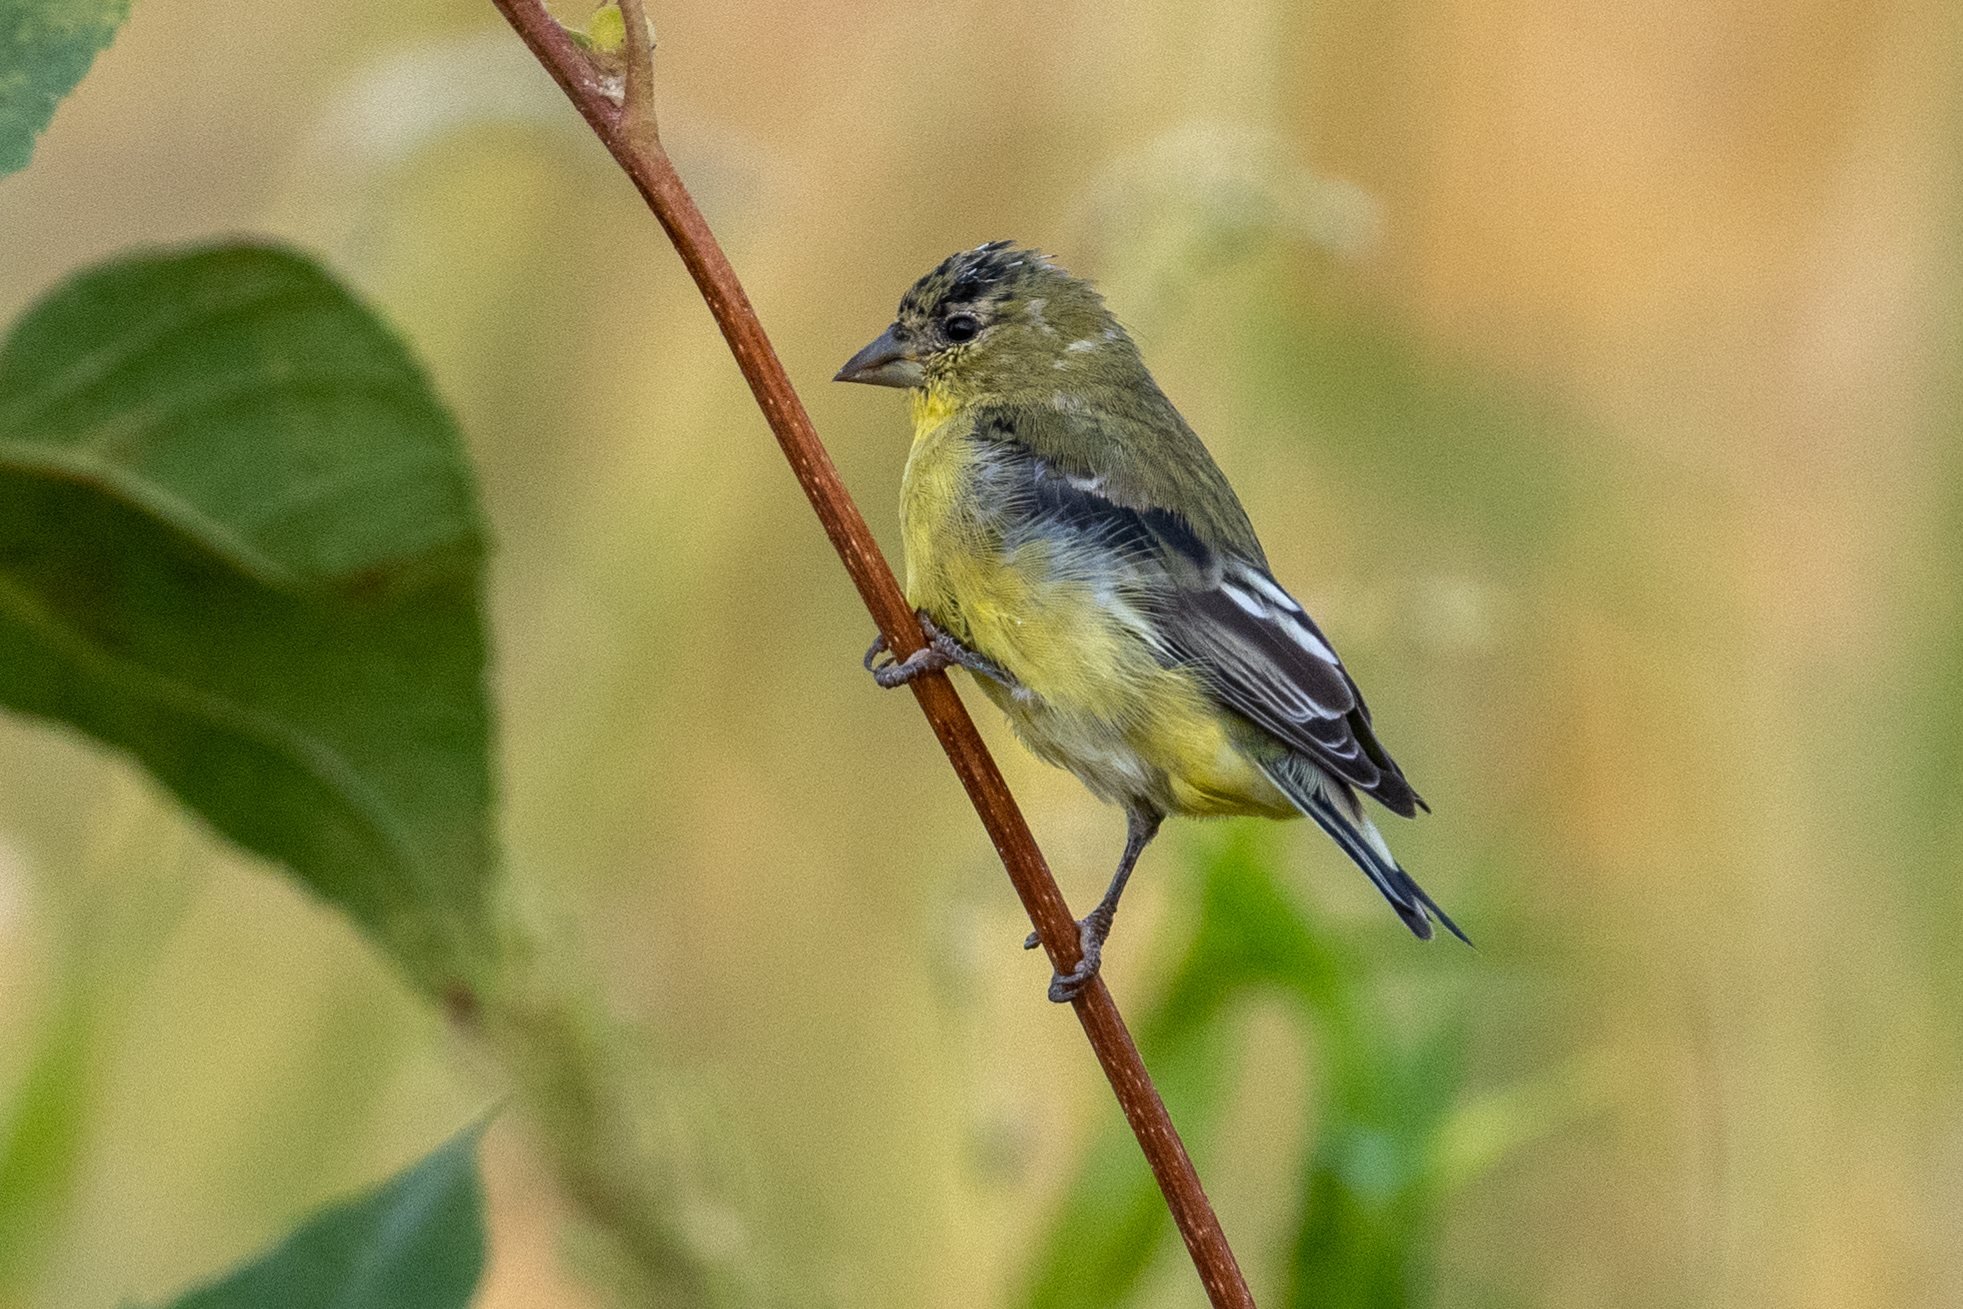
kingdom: Animalia
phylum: Chordata
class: Aves
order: Passeriformes
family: Fringillidae
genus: Spinus
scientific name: Spinus psaltria
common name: Lesser goldfinch
